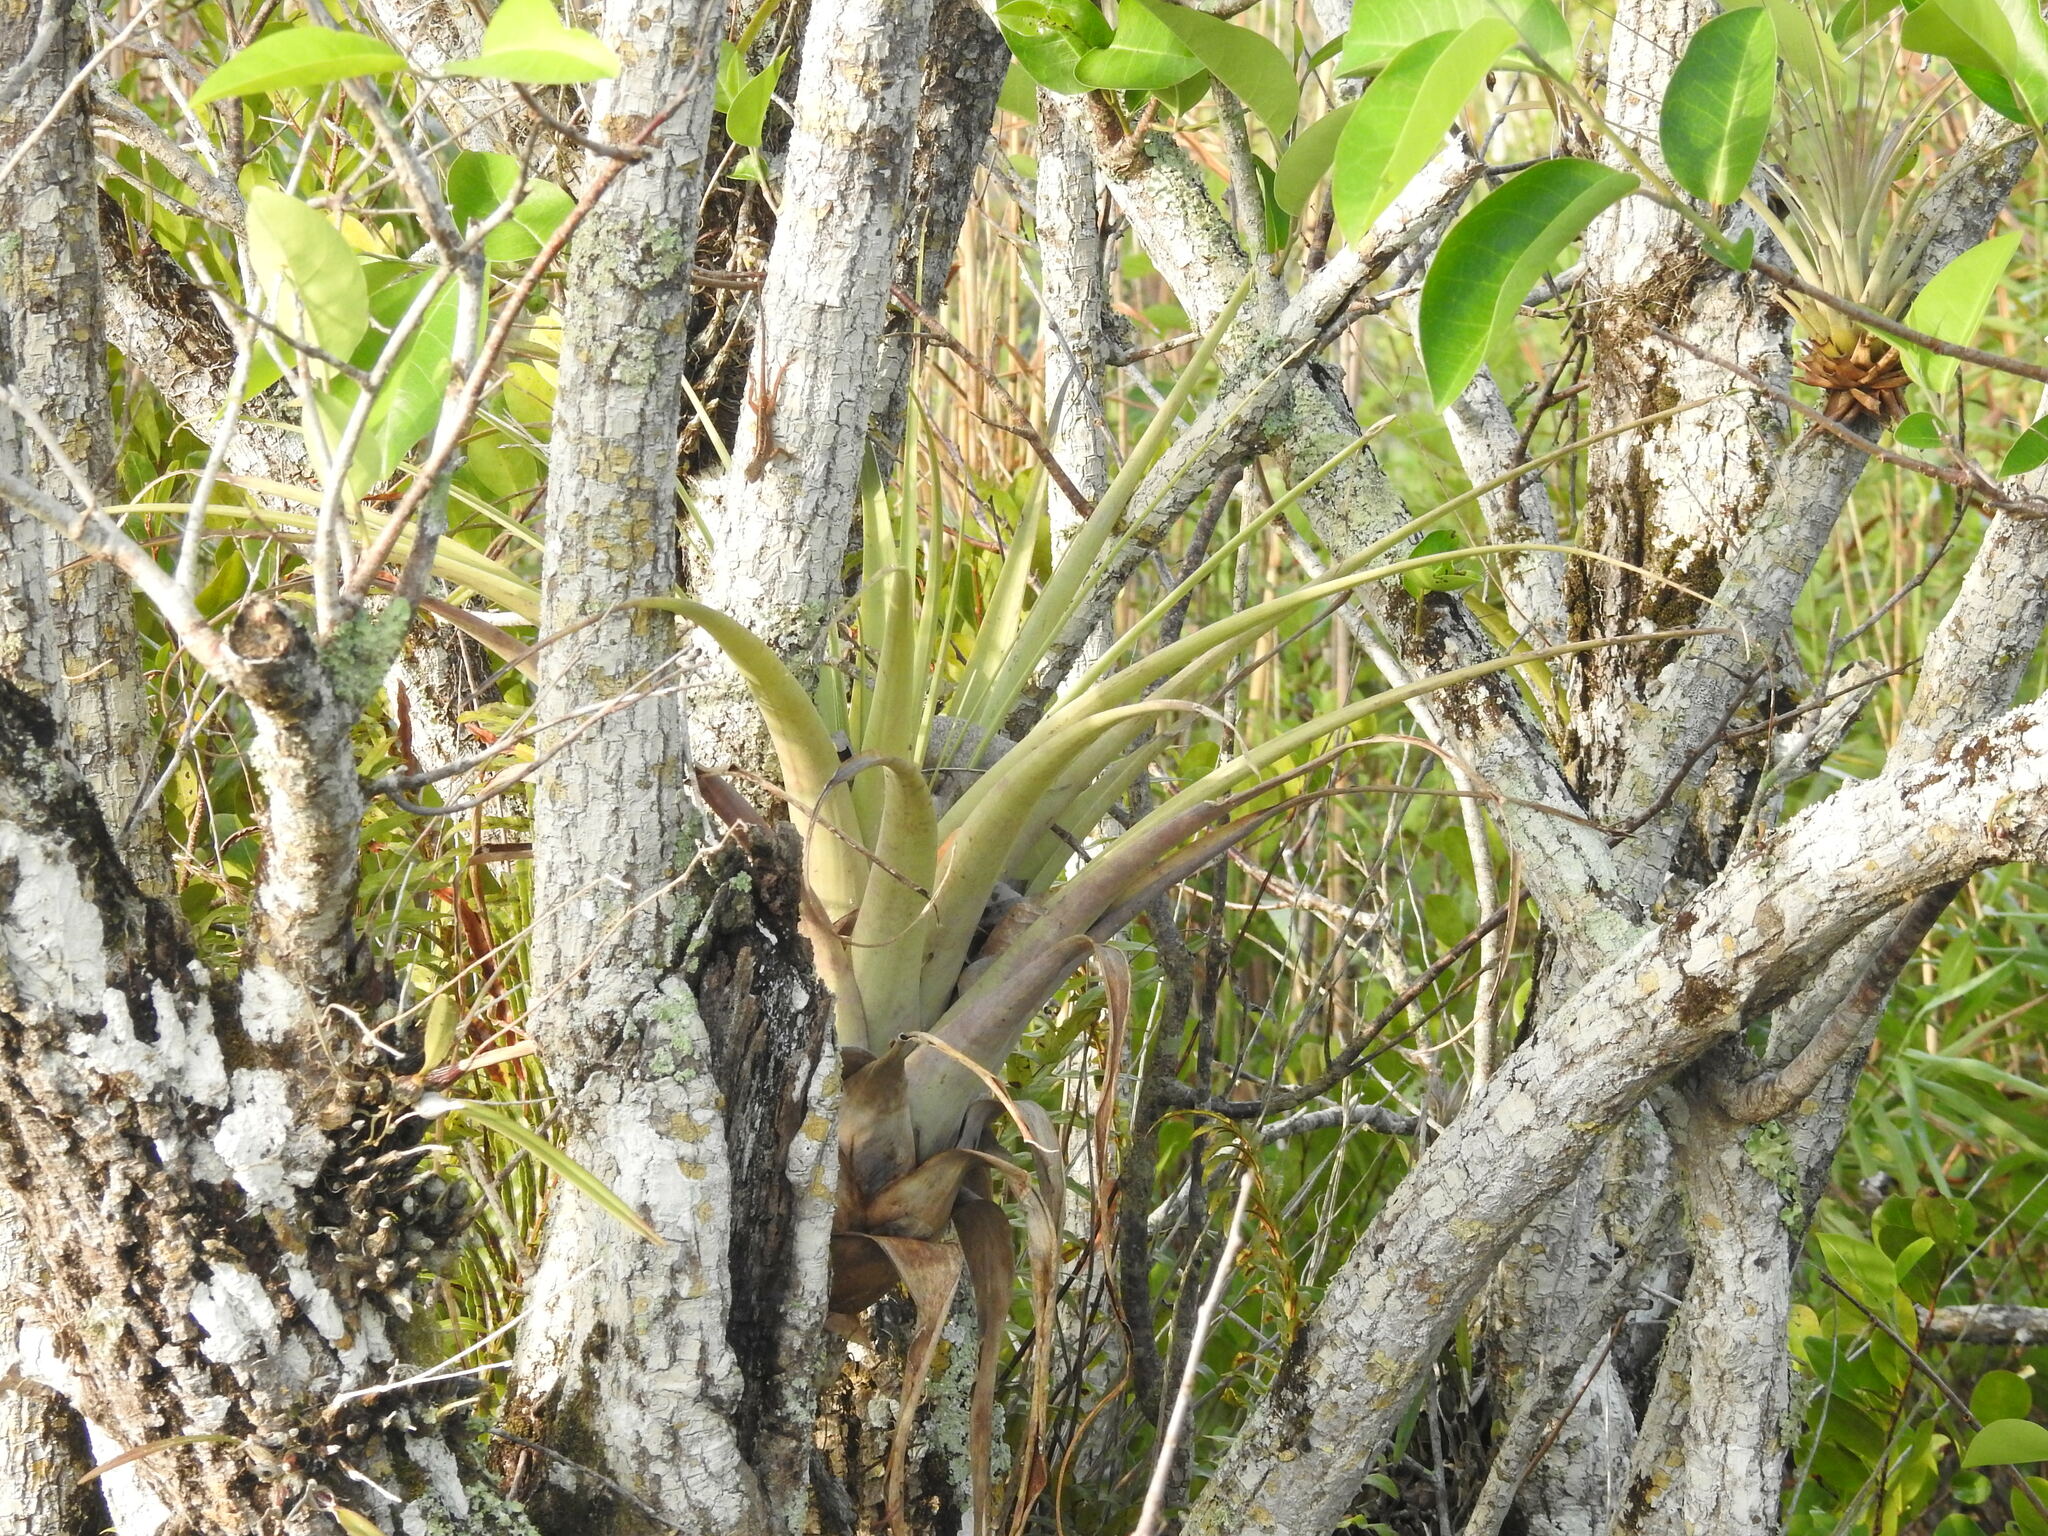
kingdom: Plantae
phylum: Tracheophyta
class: Liliopsida
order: Poales
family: Bromeliaceae
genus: Tillandsia
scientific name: Tillandsia utriculata
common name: Wild pine
